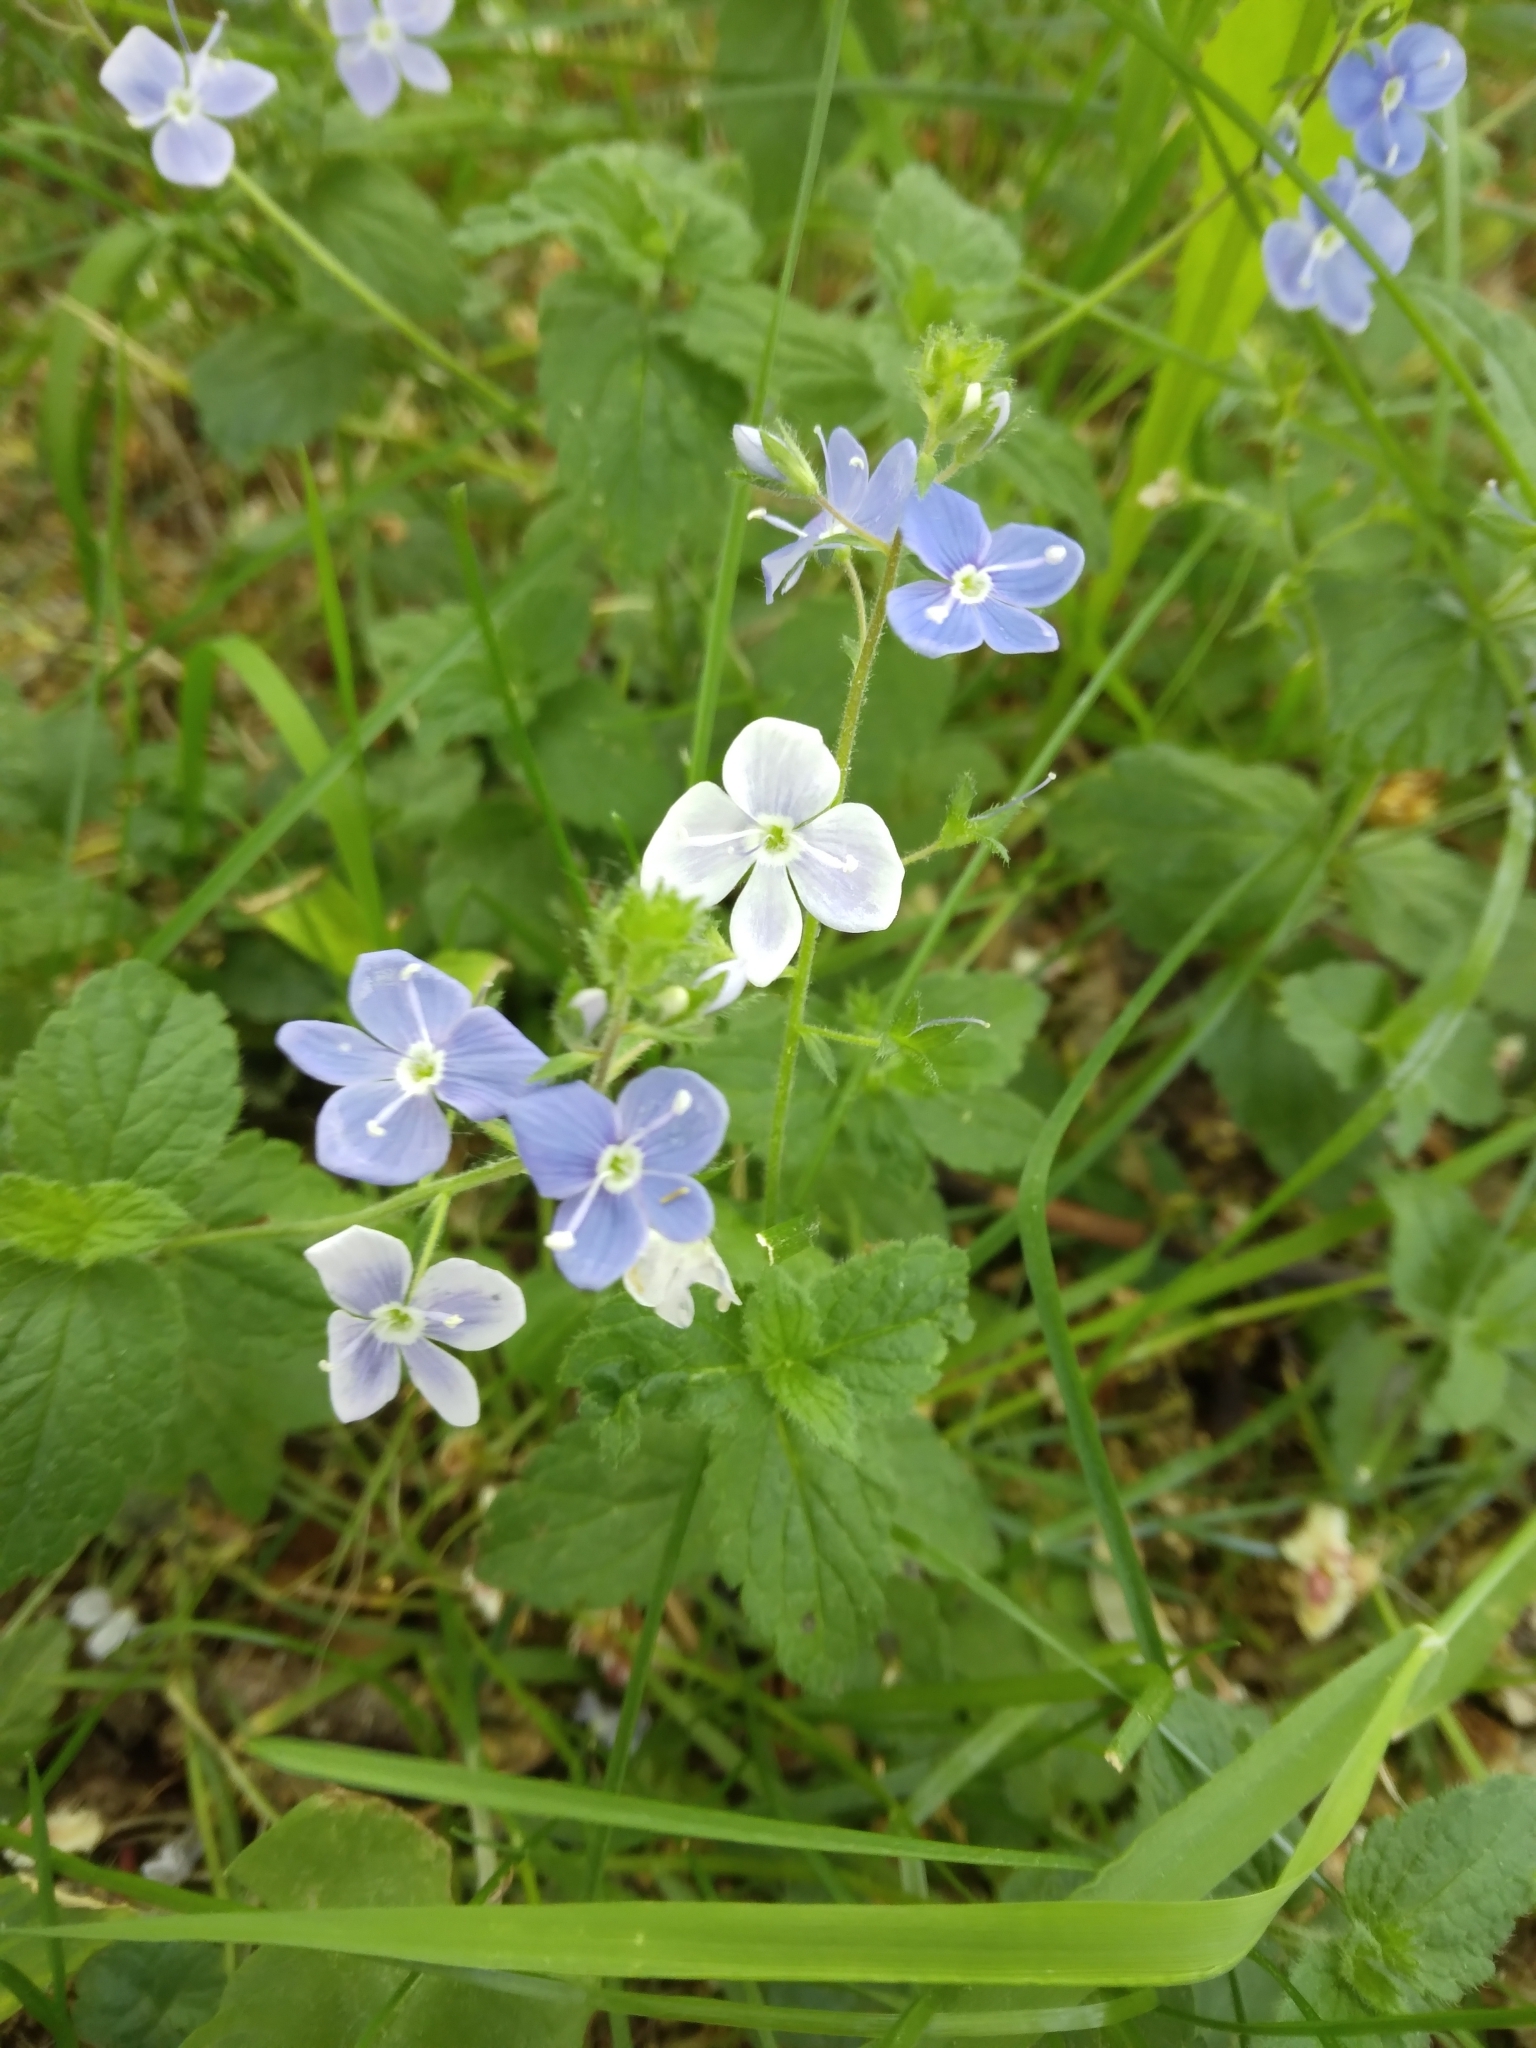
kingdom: Plantae
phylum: Tracheophyta
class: Magnoliopsida
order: Lamiales
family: Plantaginaceae
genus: Veronica
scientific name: Veronica chamaedrys
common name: Germander speedwell
